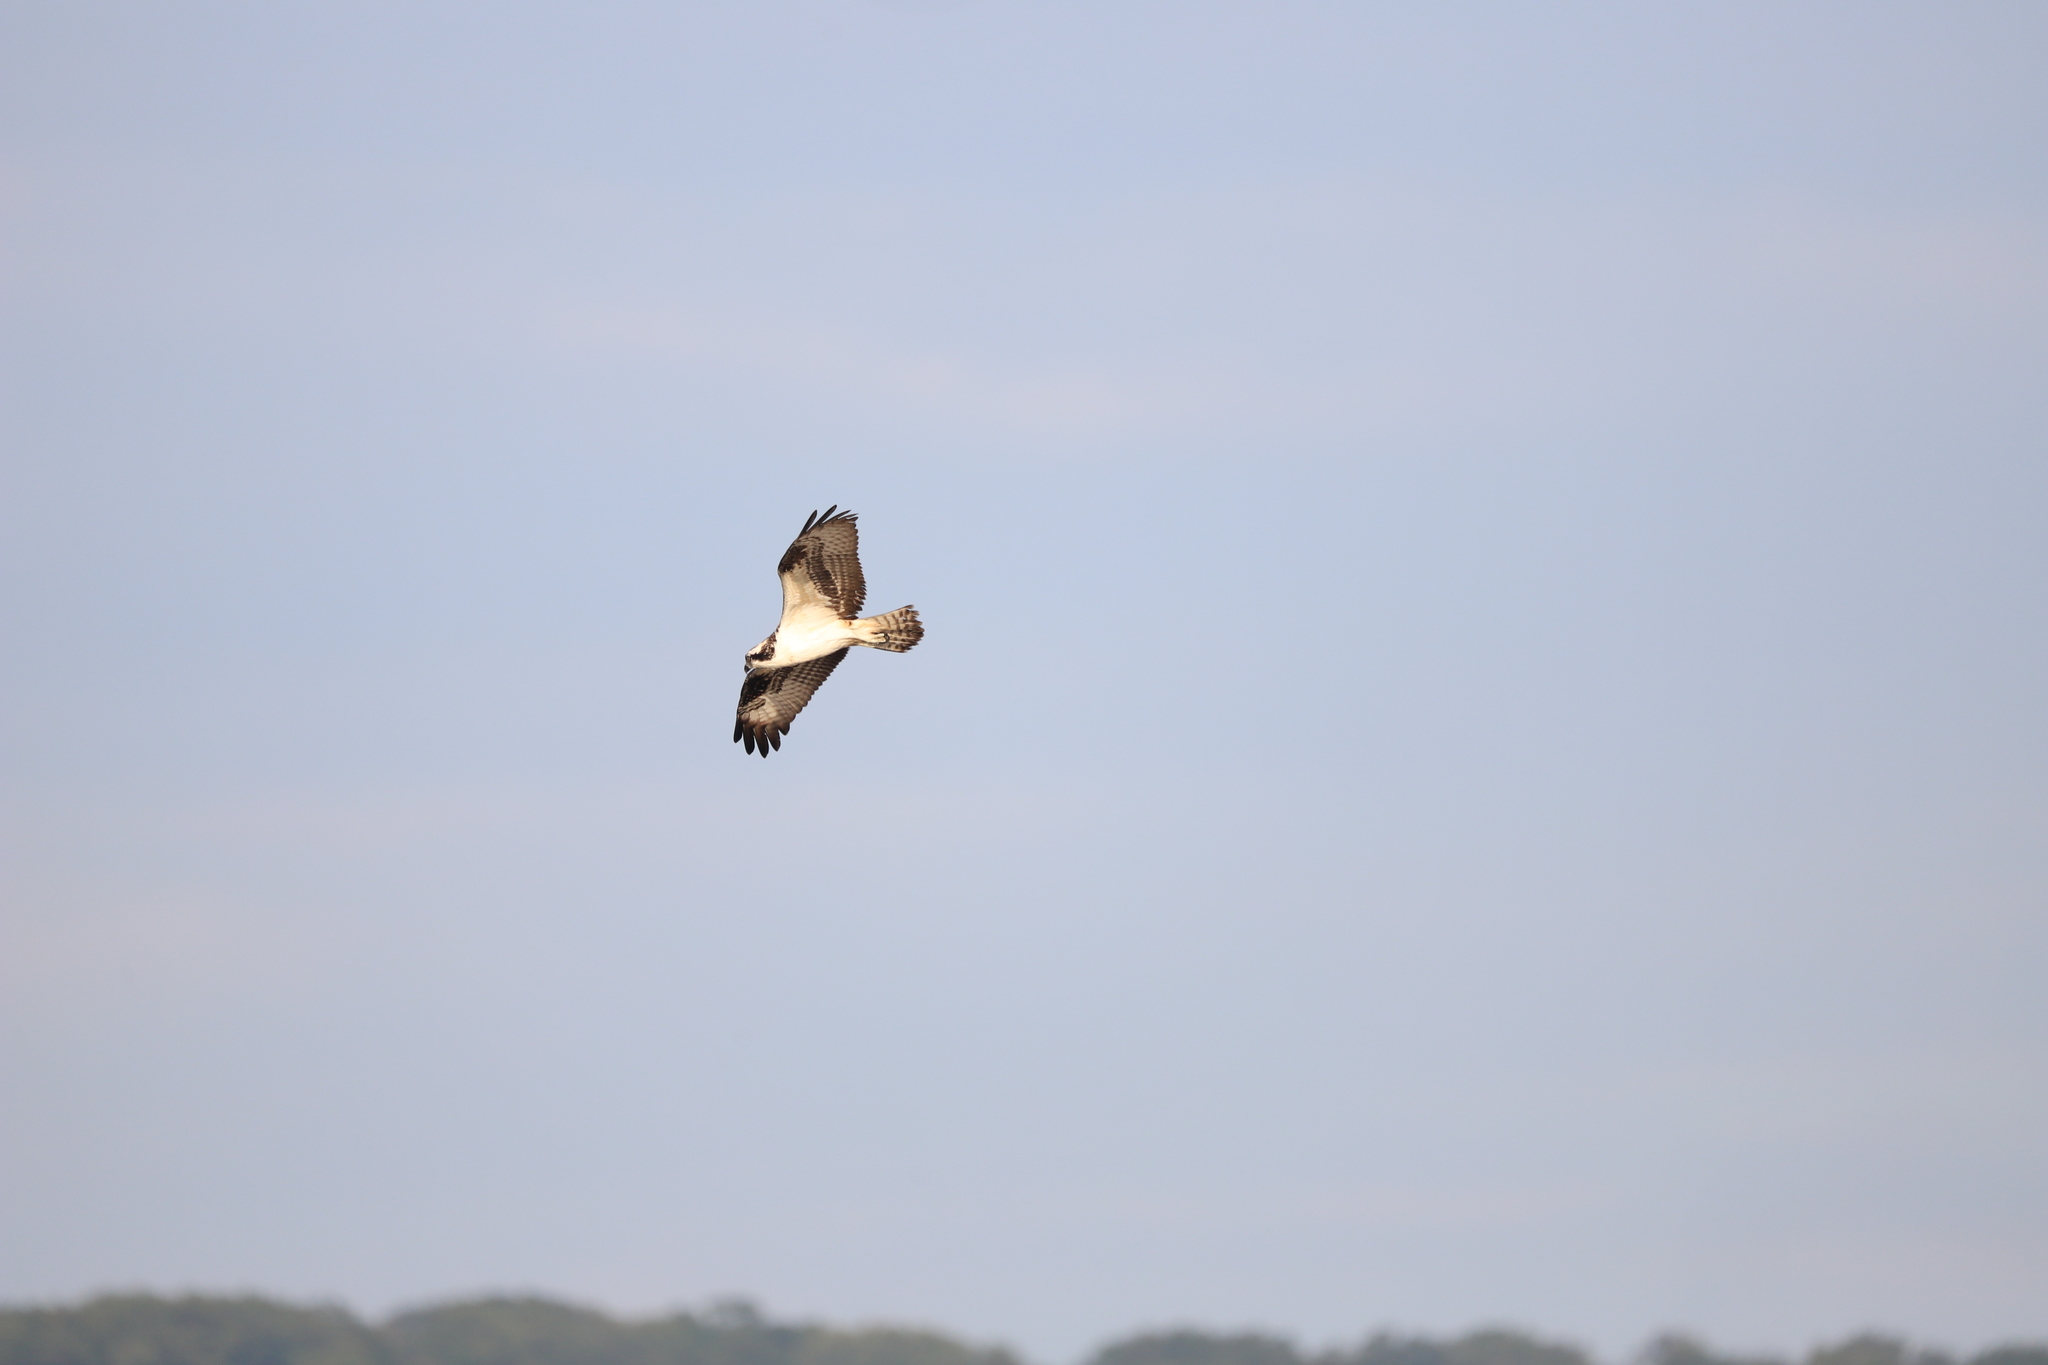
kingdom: Animalia
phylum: Chordata
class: Aves
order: Accipitriformes
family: Pandionidae
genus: Pandion
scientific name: Pandion haliaetus
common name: Osprey
